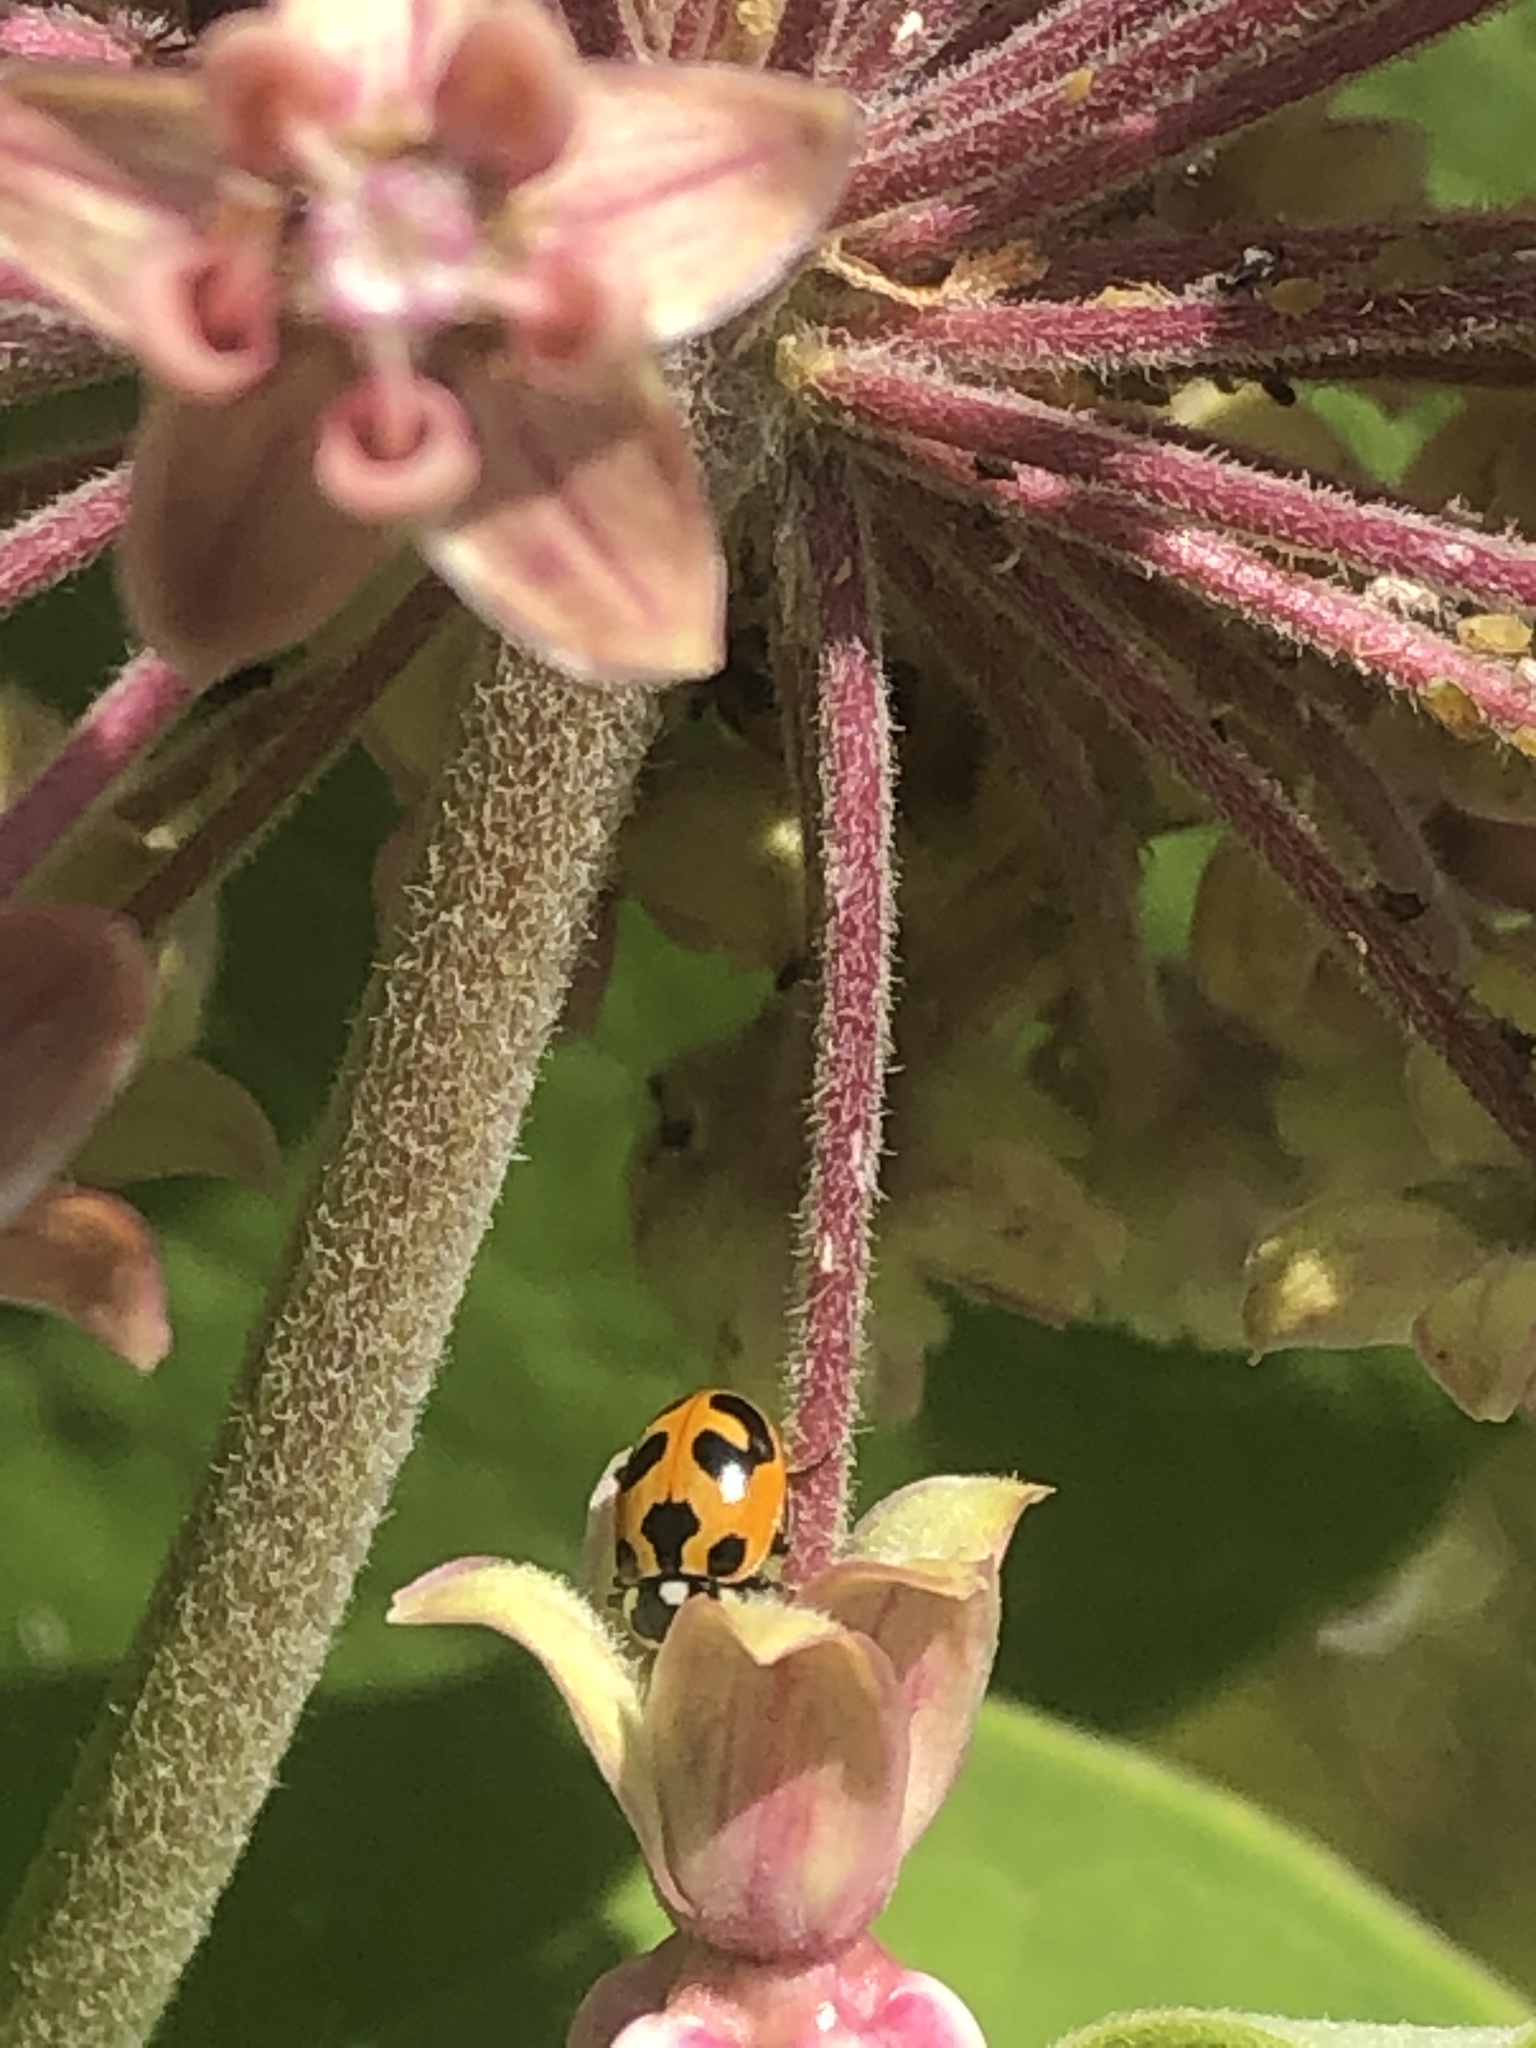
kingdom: Animalia
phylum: Arthropoda
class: Insecta
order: Coleoptera
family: Coccinellidae
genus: Hippodamia
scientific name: Hippodamia parenthesis
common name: Parenthesis lady beetle
